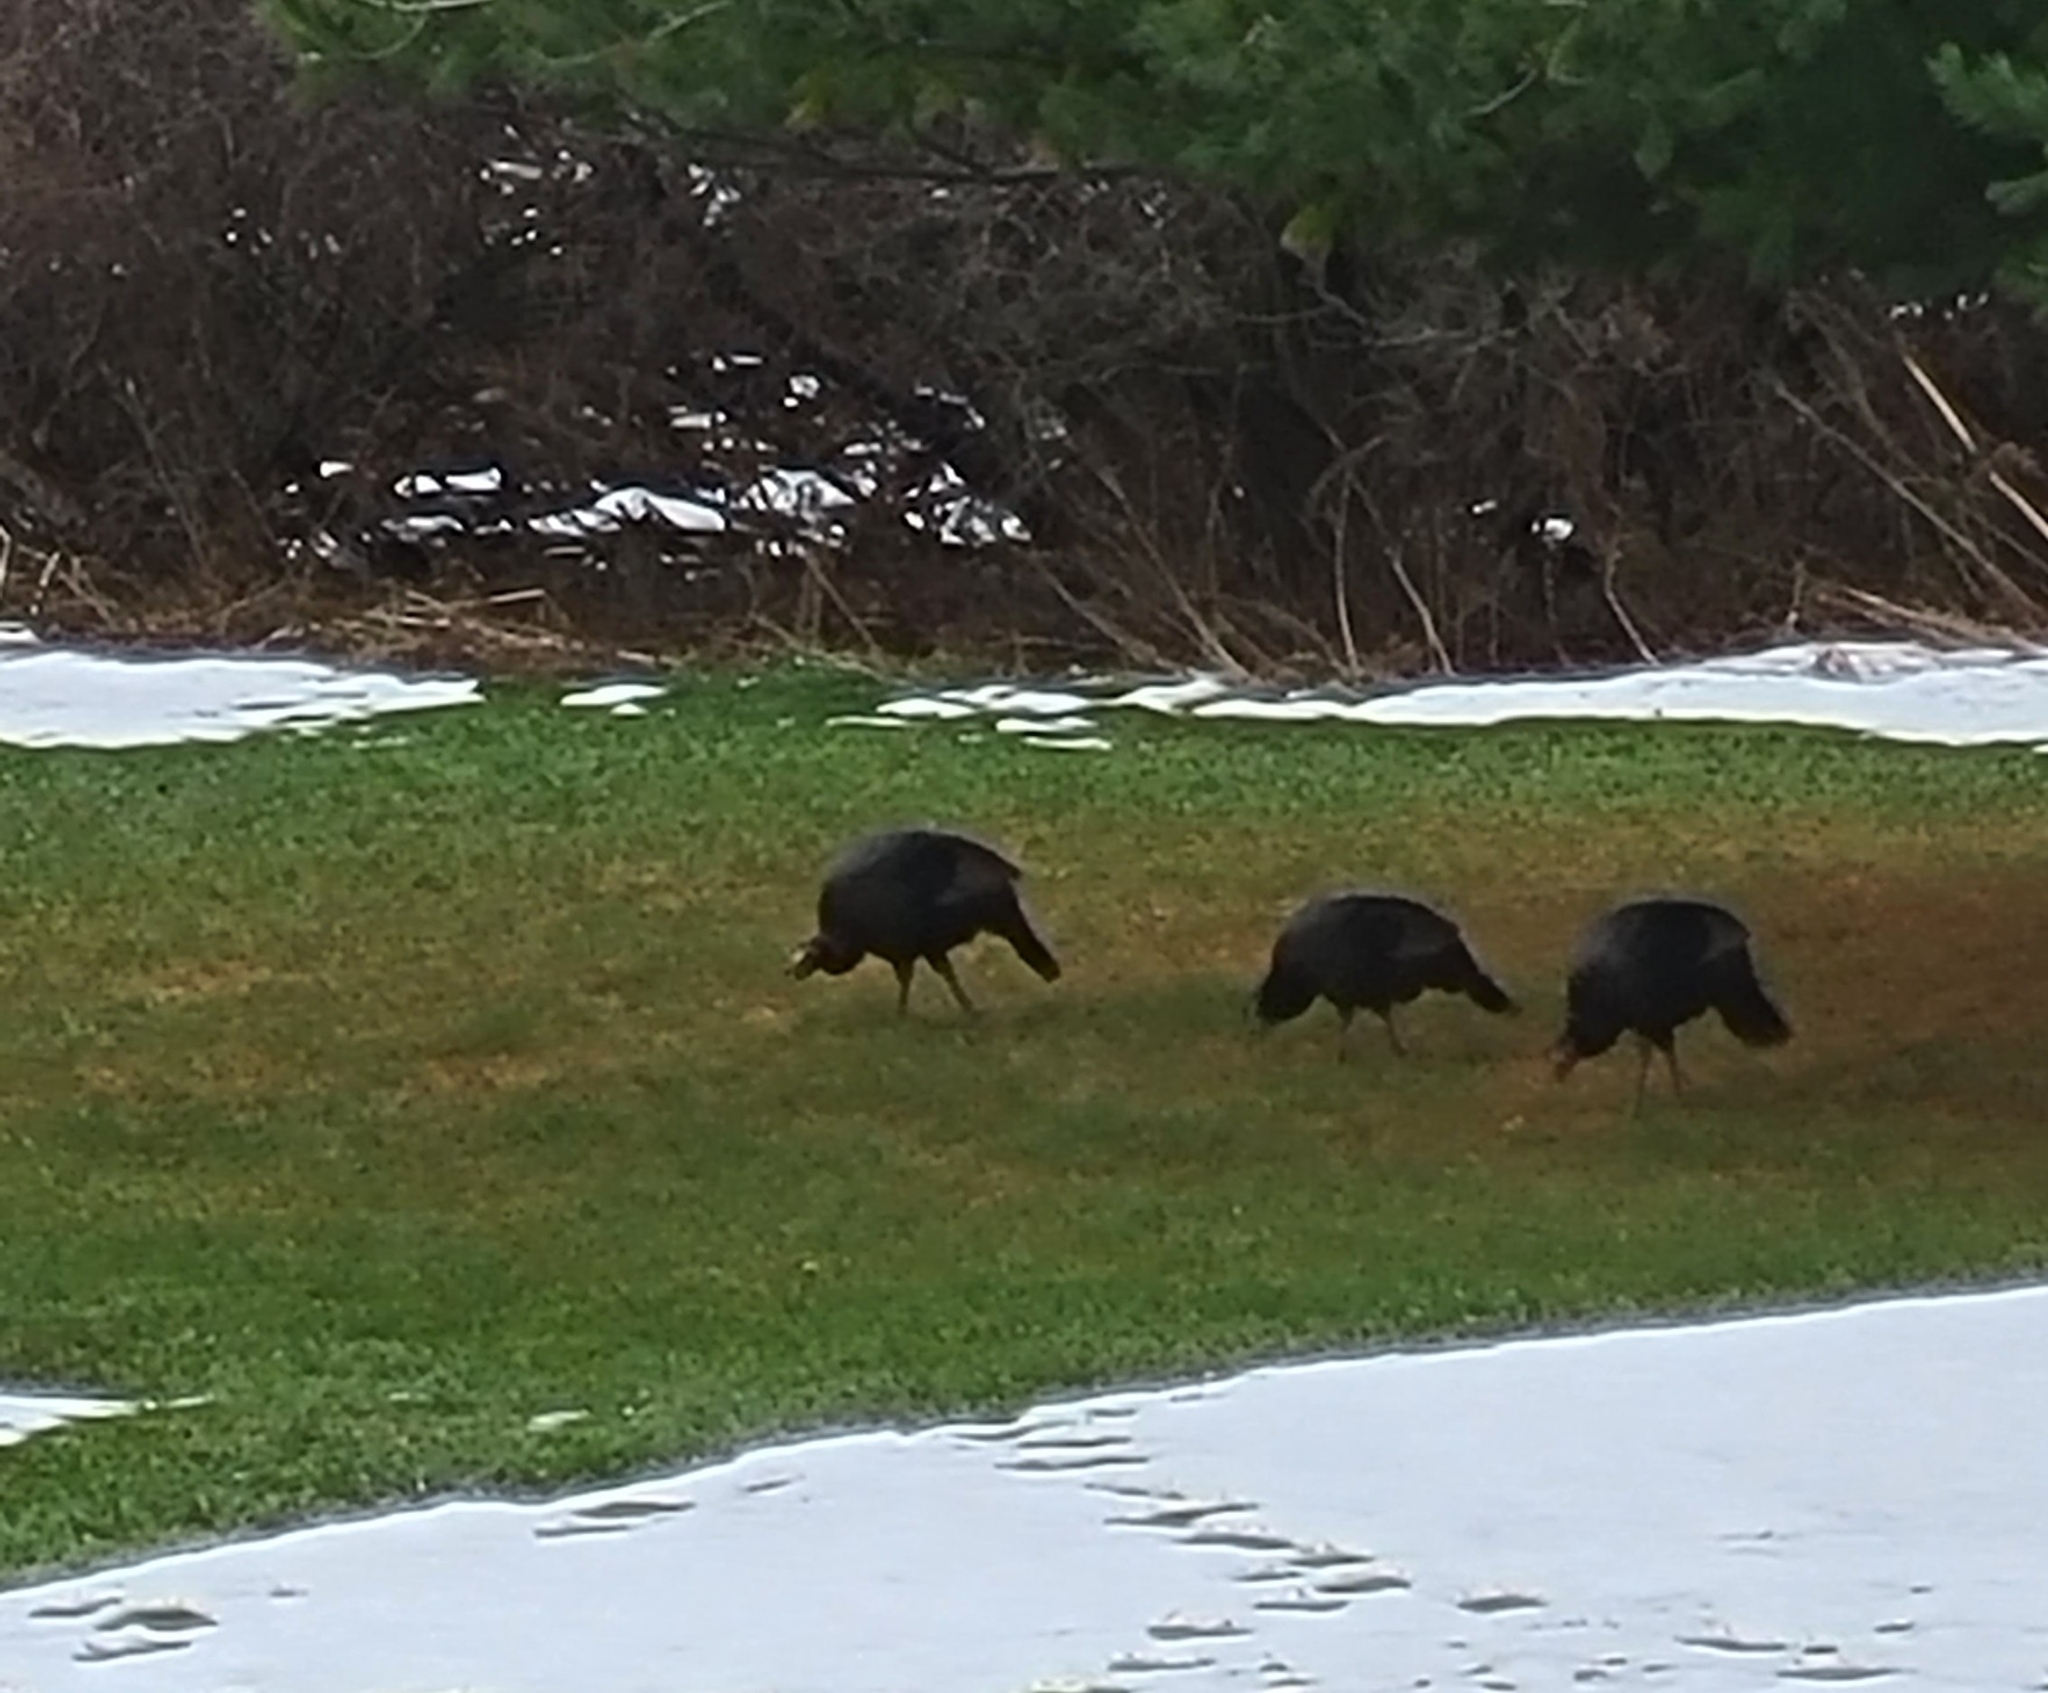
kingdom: Animalia
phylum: Chordata
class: Aves
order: Galliformes
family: Phasianidae
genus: Meleagris
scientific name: Meleagris gallopavo
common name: Wild turkey
